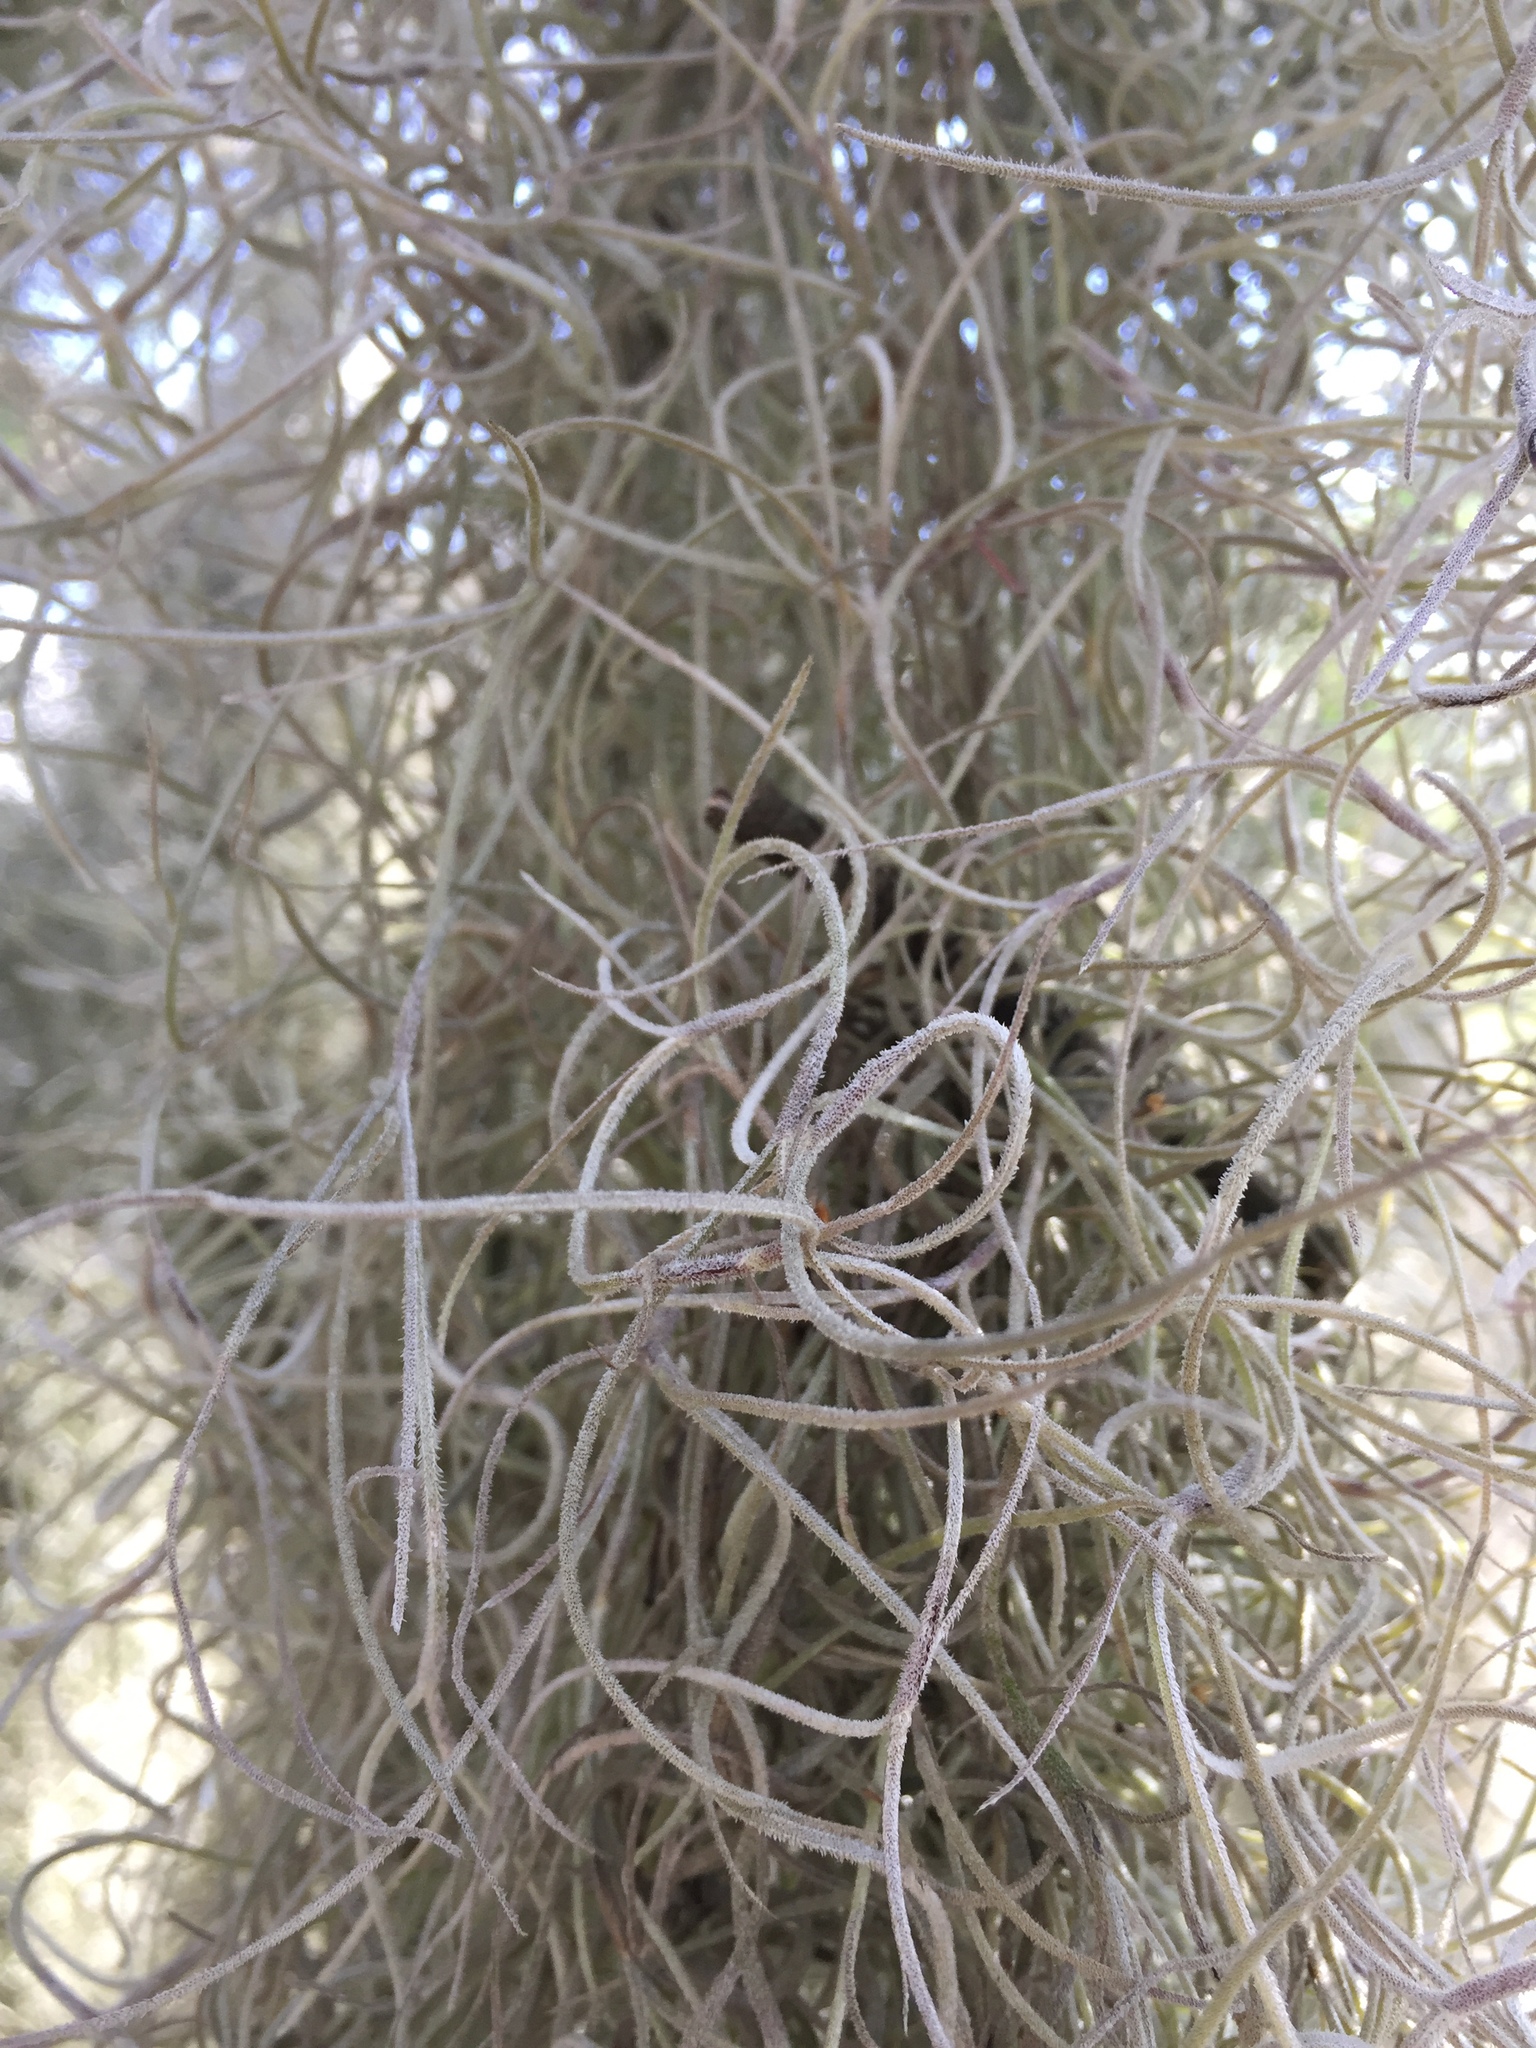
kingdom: Plantae
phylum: Tracheophyta
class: Liliopsida
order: Poales
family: Bromeliaceae
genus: Tillandsia
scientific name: Tillandsia usneoides
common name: Spanish moss
